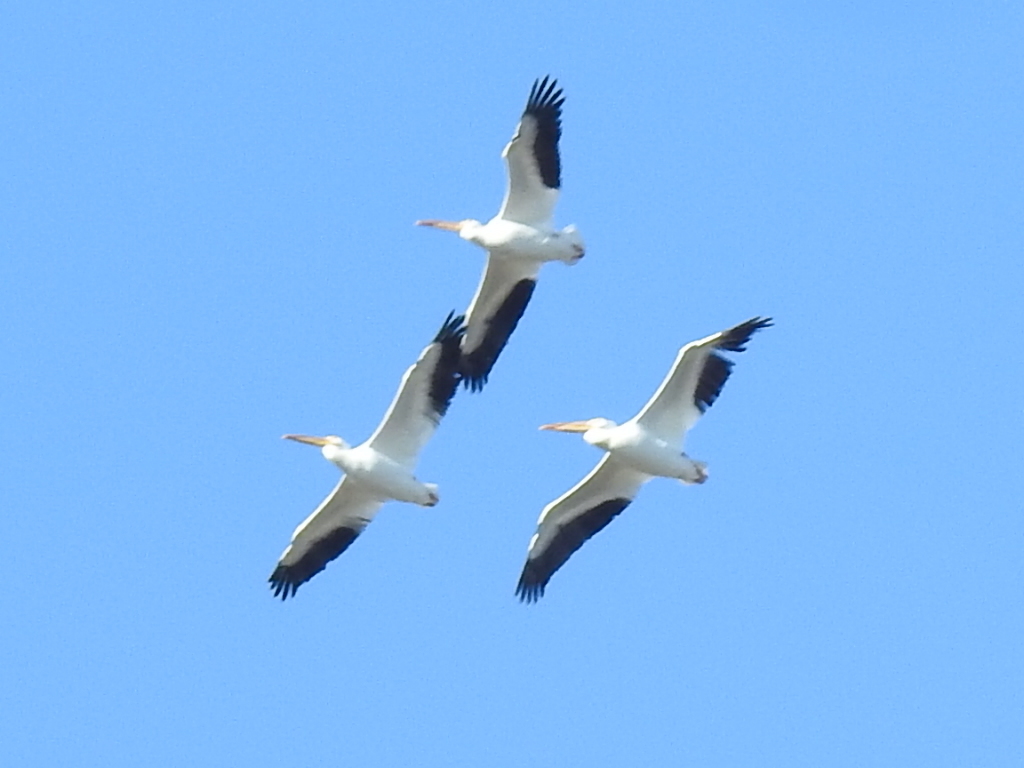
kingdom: Animalia
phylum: Chordata
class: Aves
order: Pelecaniformes
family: Pelecanidae
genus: Pelecanus
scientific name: Pelecanus erythrorhynchos
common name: American white pelican
